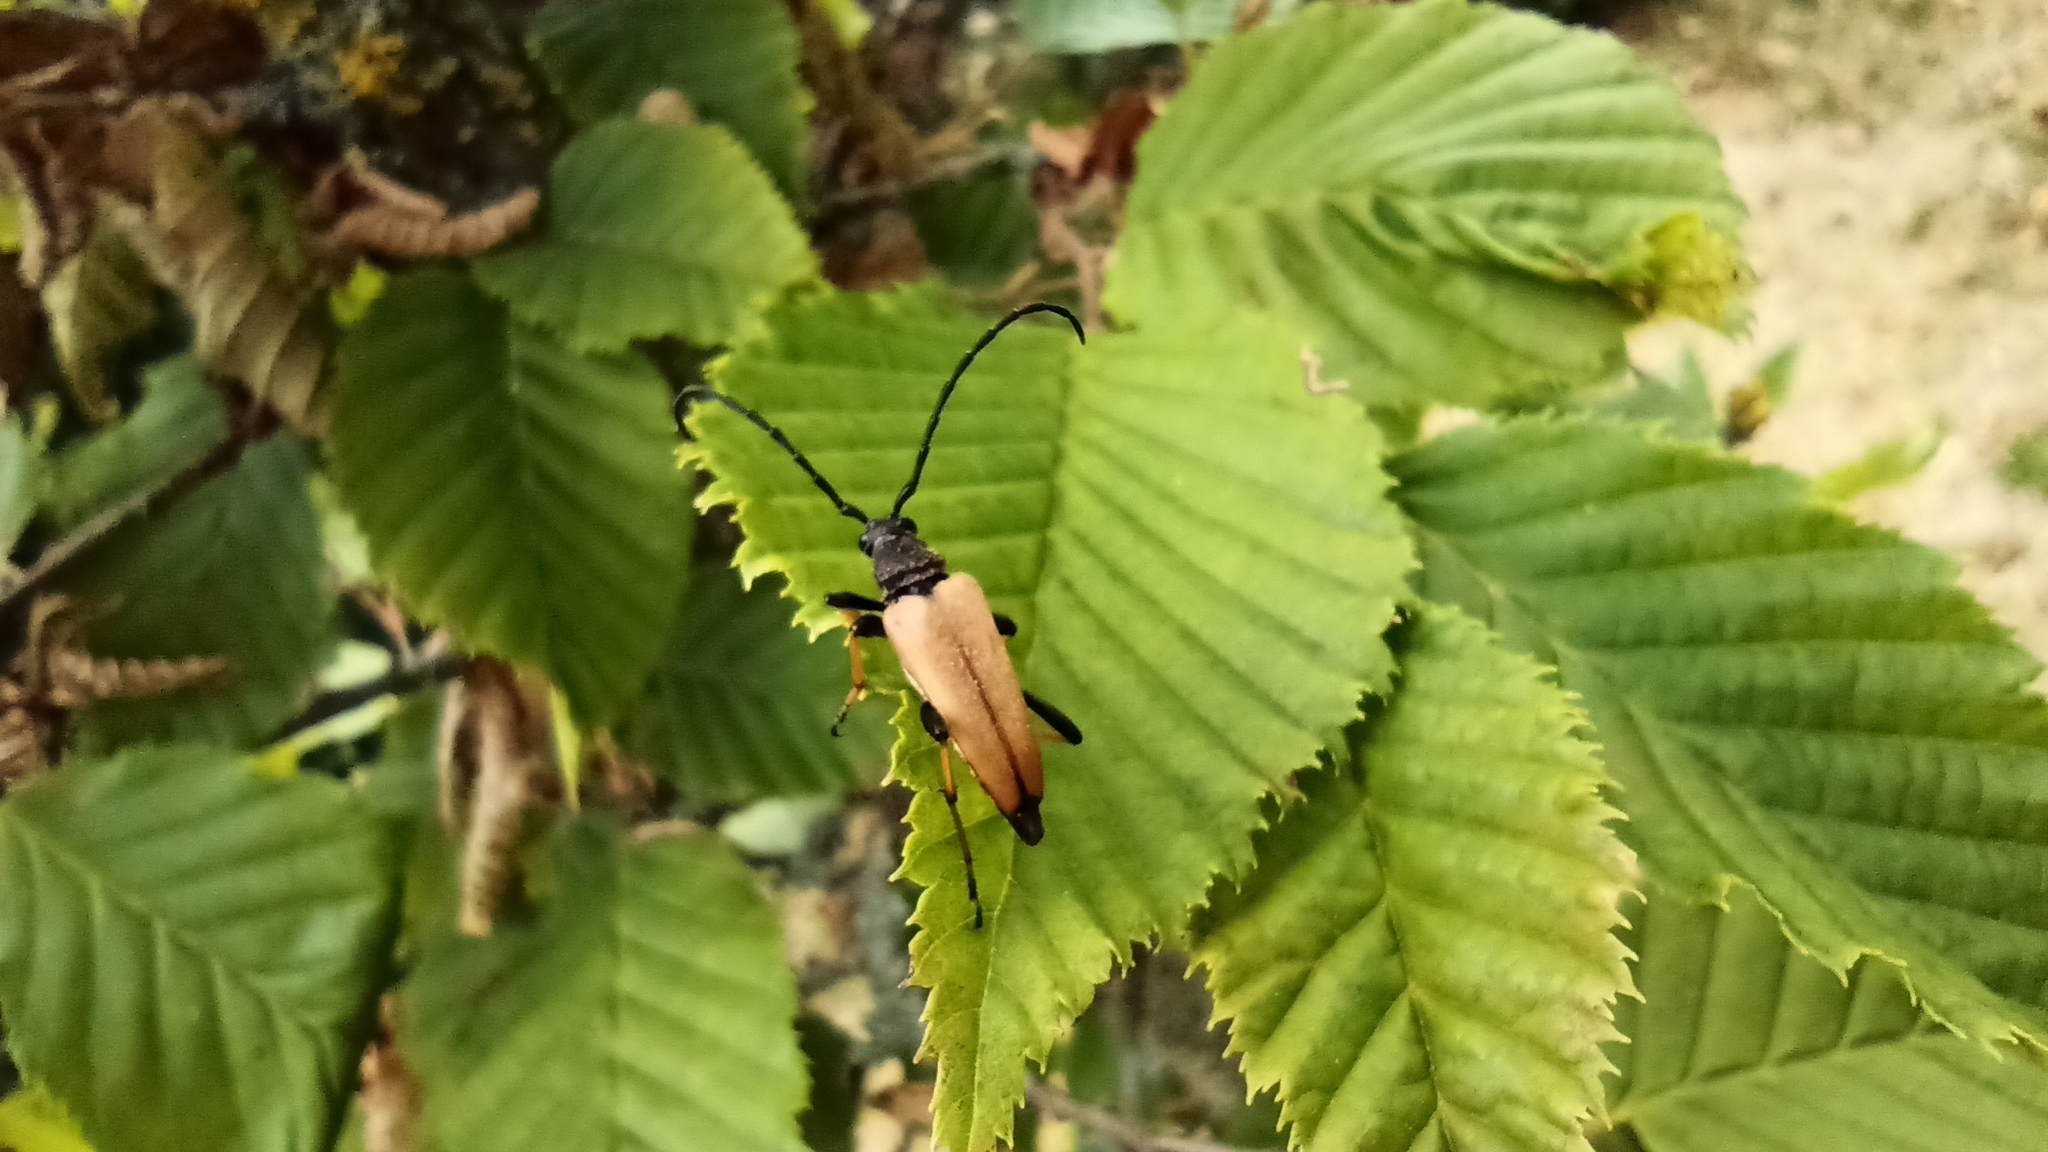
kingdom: Animalia
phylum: Arthropoda
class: Insecta
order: Coleoptera
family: Cerambycidae
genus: Stictoleptura
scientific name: Stictoleptura rubra
